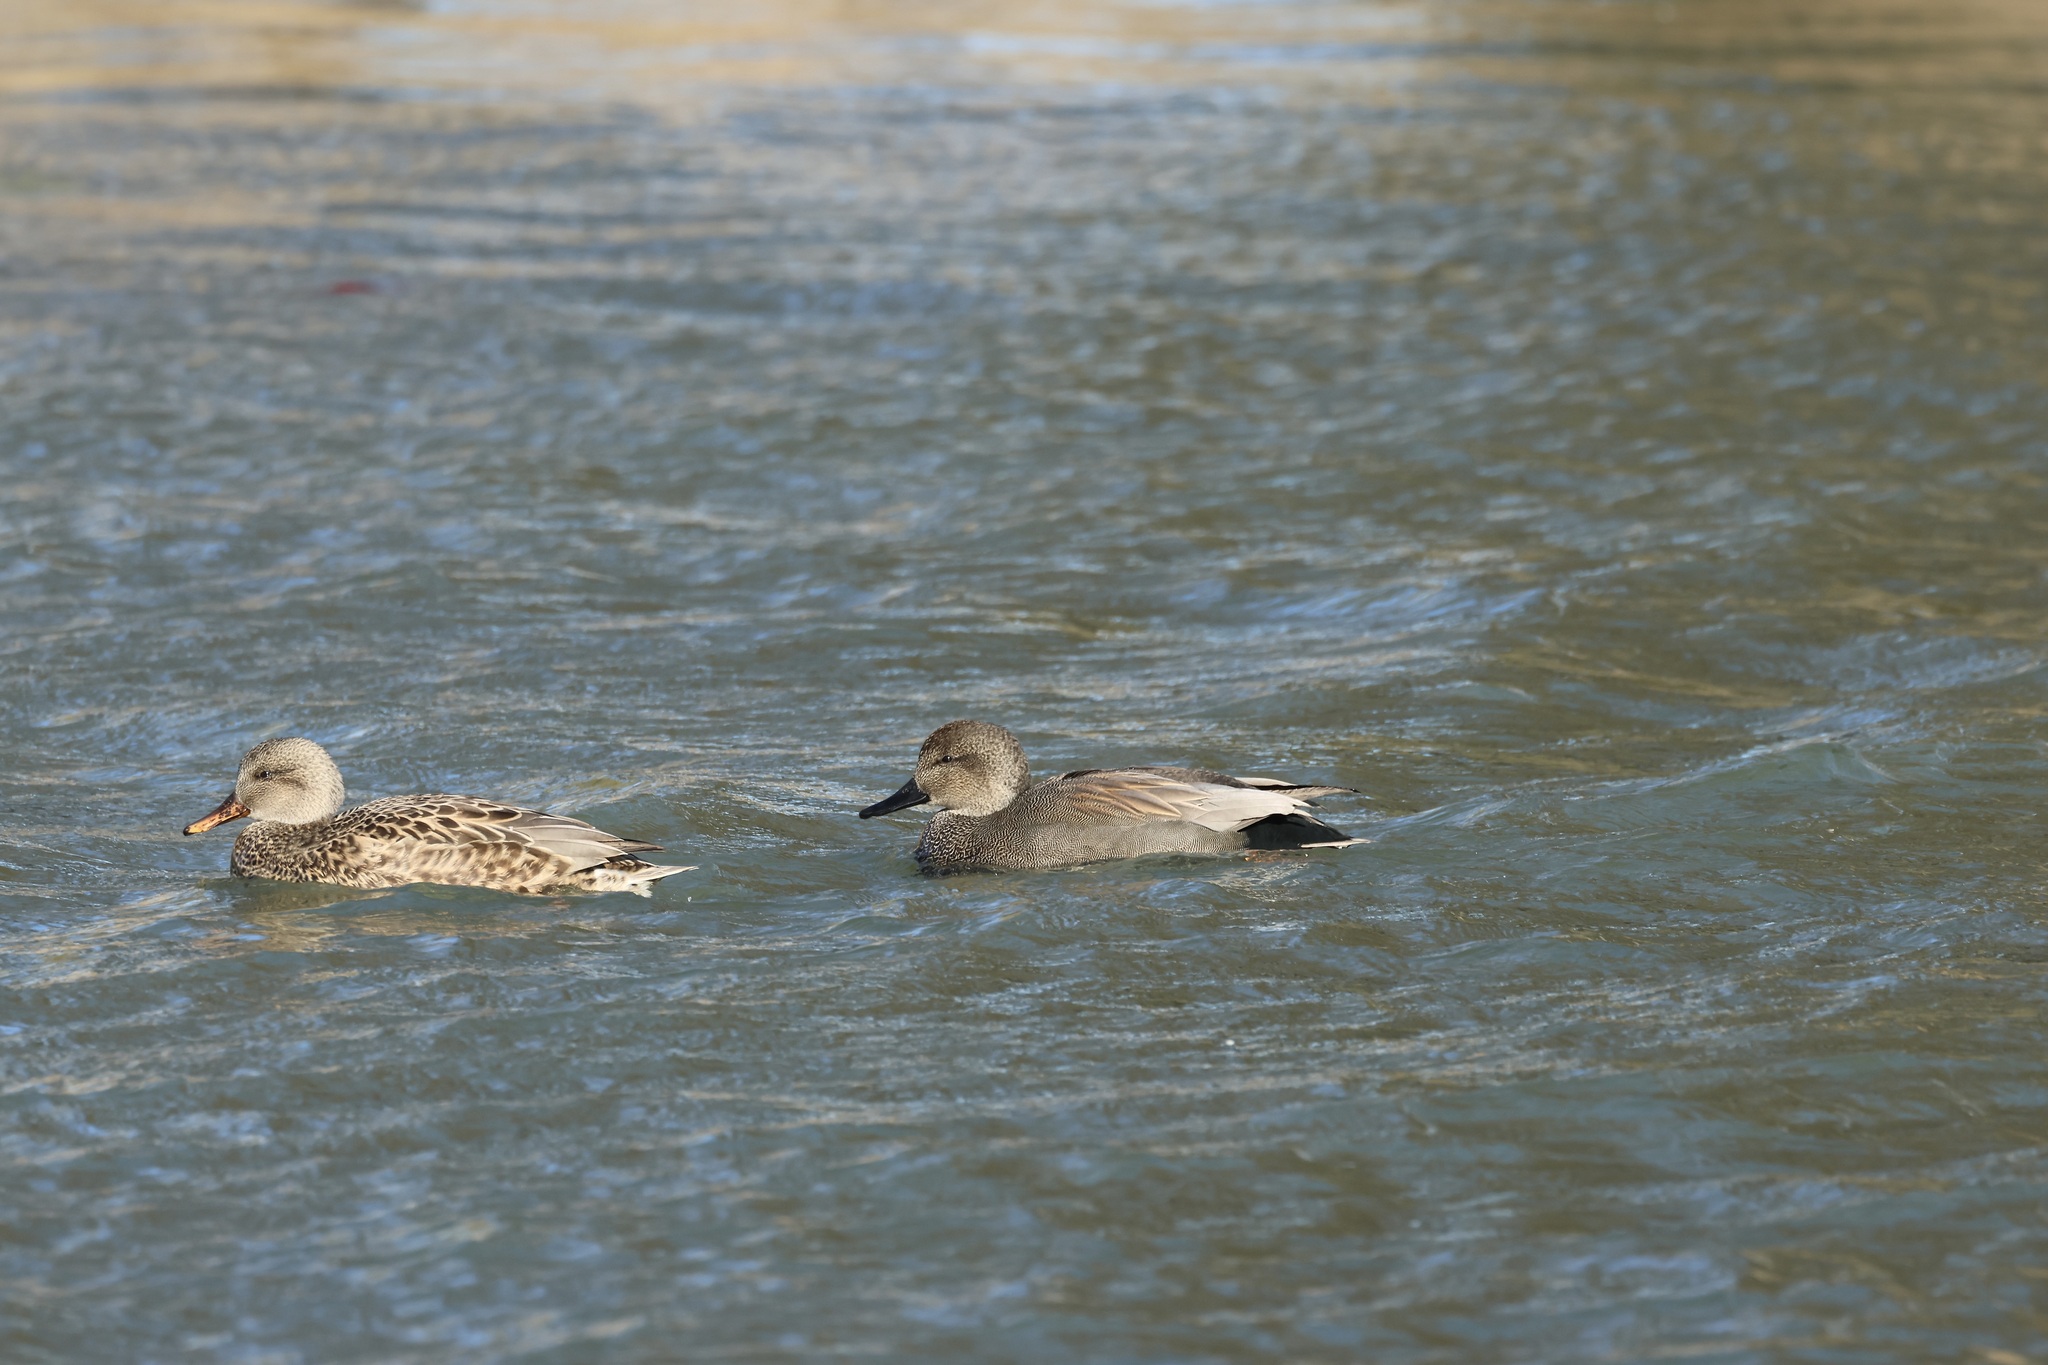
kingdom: Animalia
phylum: Chordata
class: Aves
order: Anseriformes
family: Anatidae
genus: Mareca
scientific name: Mareca strepera
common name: Gadwall
